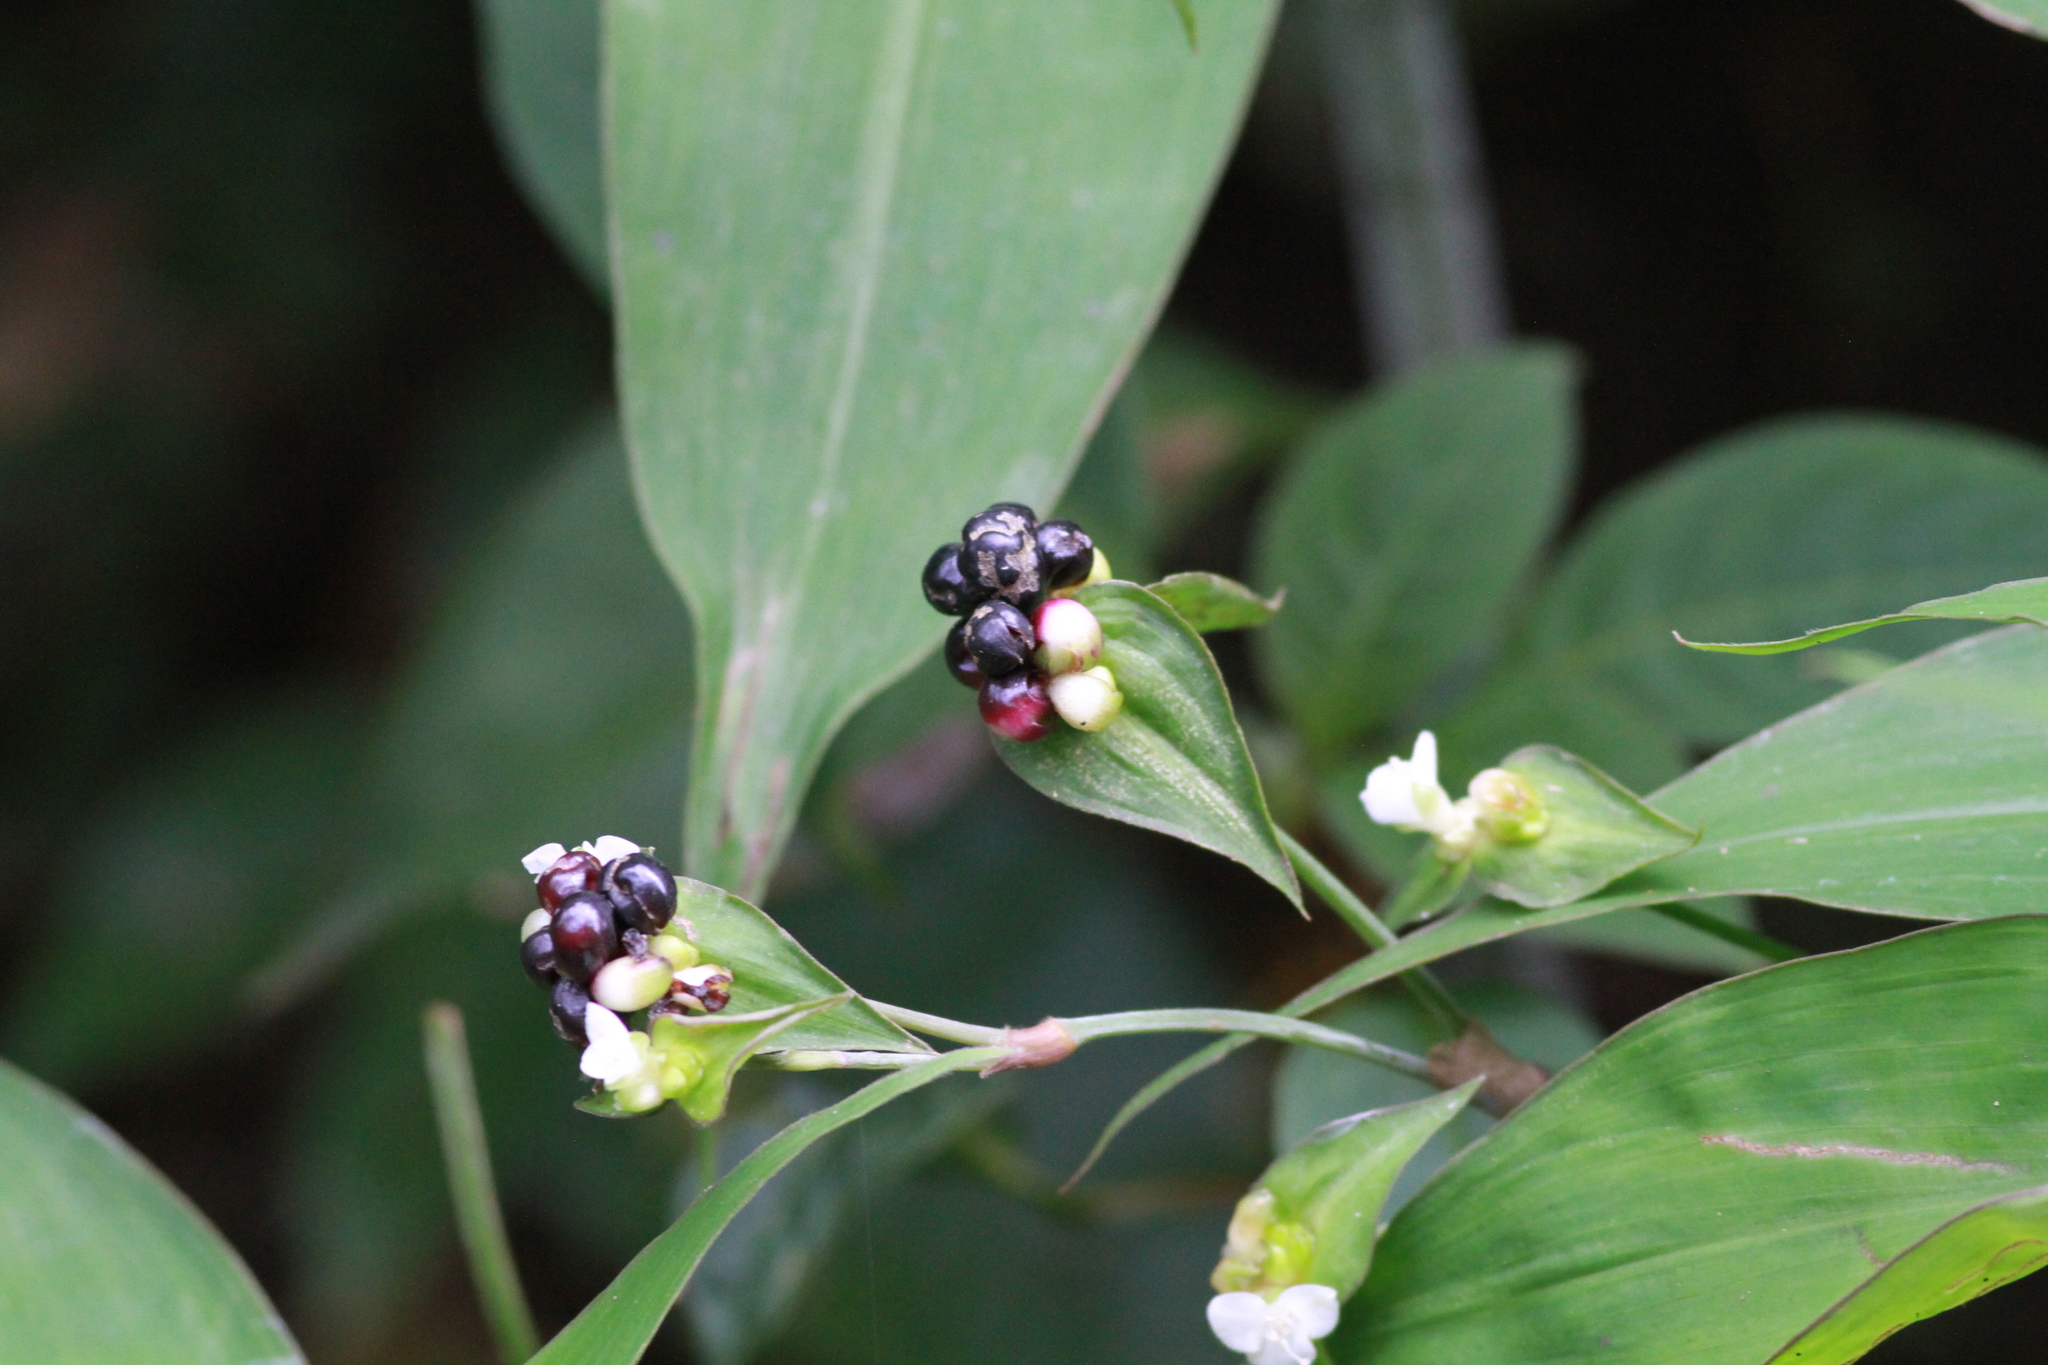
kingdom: Plantae
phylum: Tracheophyta
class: Liliopsida
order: Commelinales
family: Commelinaceae
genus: Tradescantia
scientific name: Tradescantia zanonia
